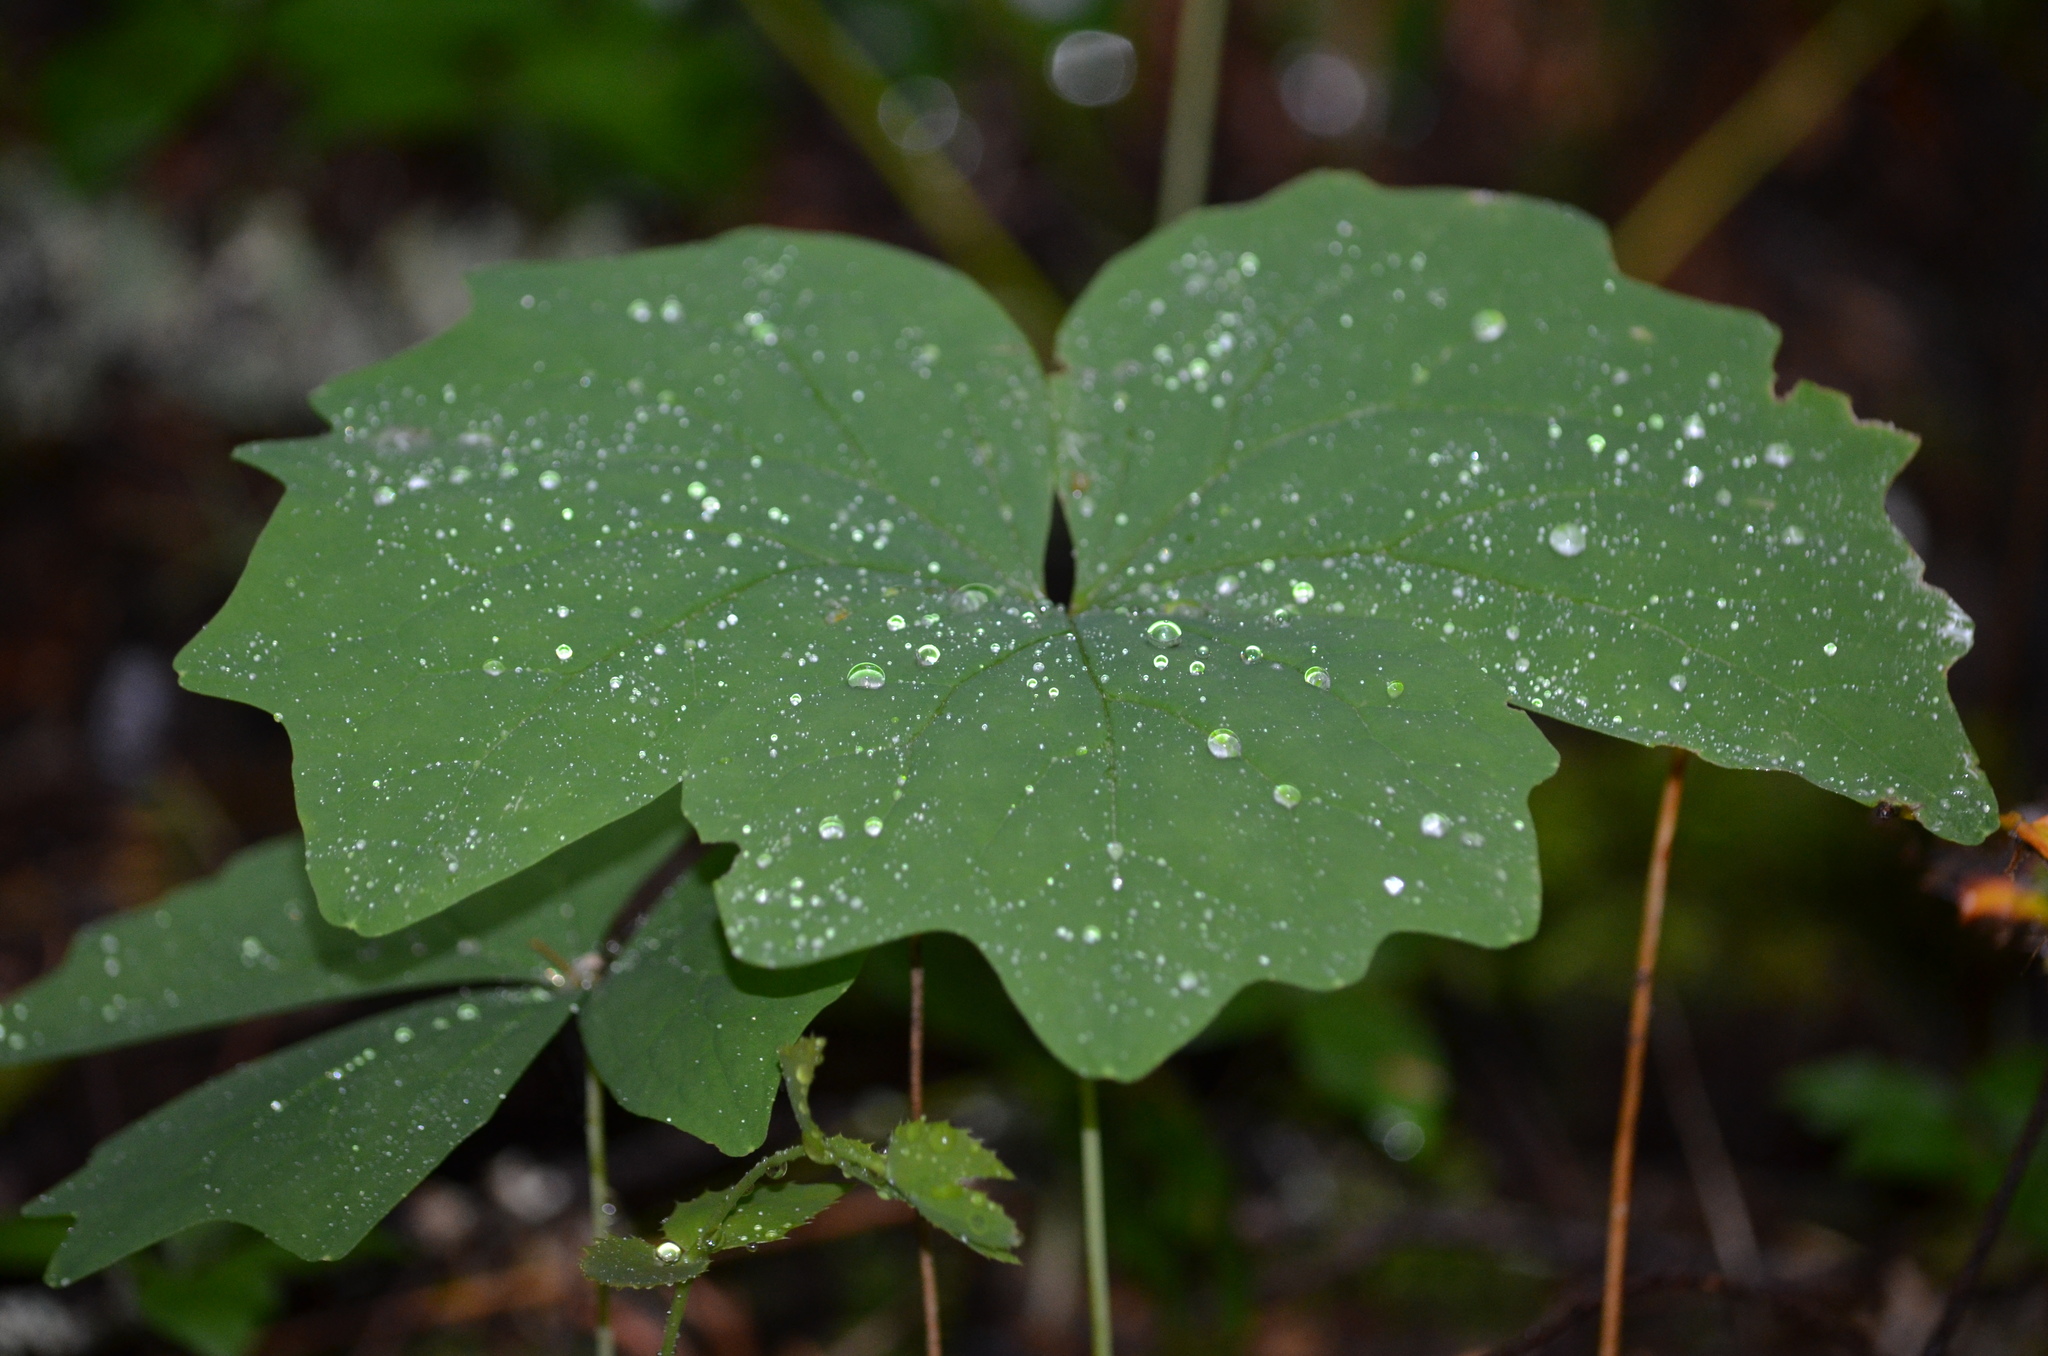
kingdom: Plantae
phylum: Tracheophyta
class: Magnoliopsida
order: Ranunculales
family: Berberidaceae
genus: Achlys
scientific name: Achlys triphylla
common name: Vanilla-leaf
